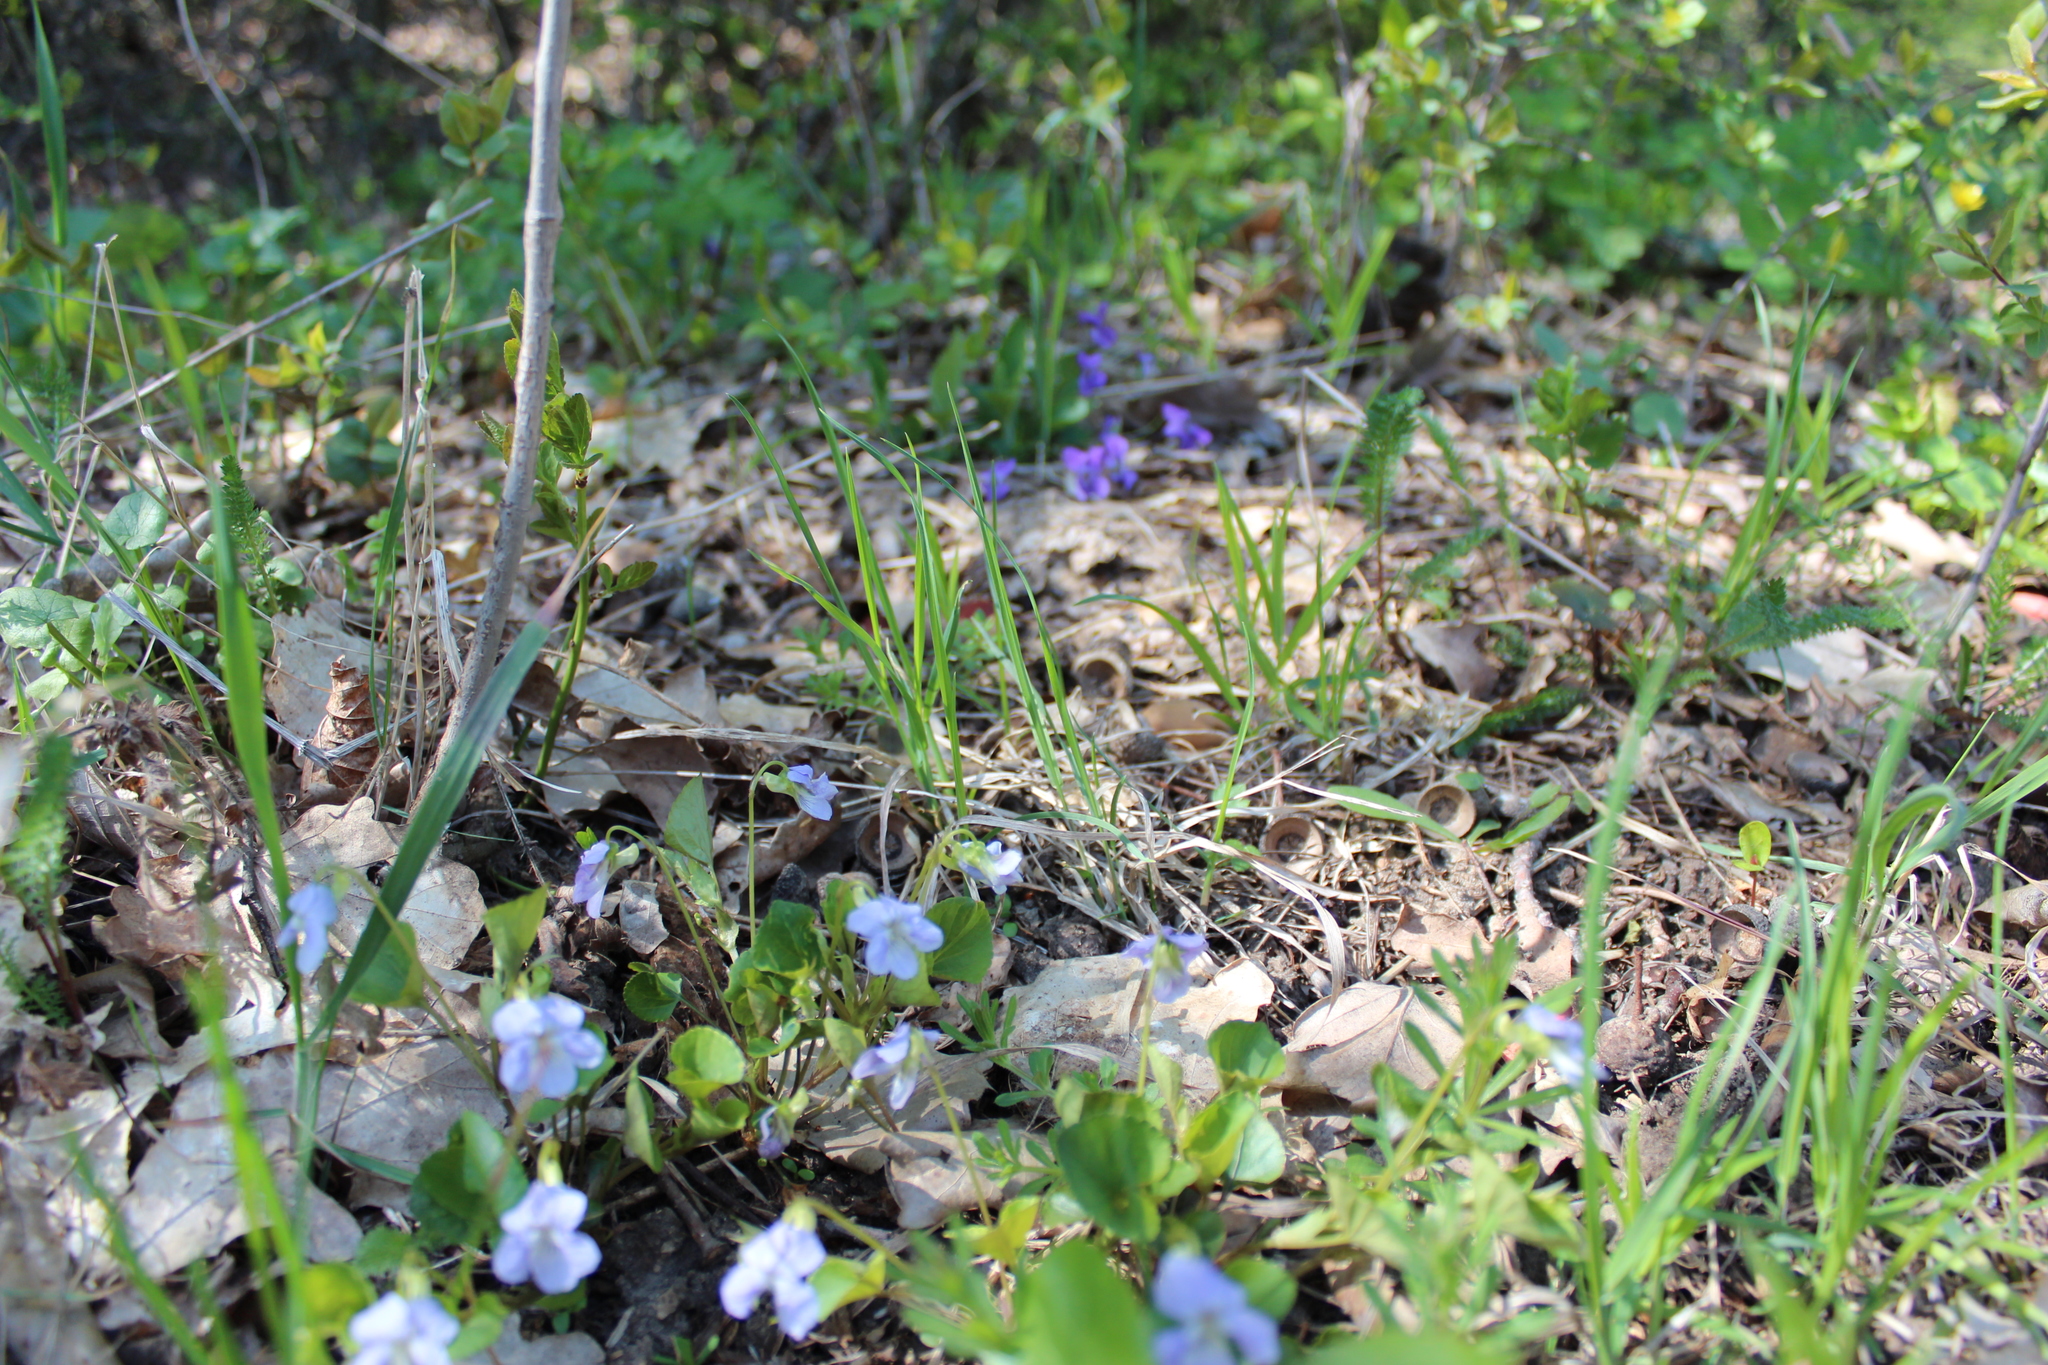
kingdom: Plantae
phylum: Tracheophyta
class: Magnoliopsida
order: Malpighiales
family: Violaceae
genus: Viola
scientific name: Viola tanaitica
